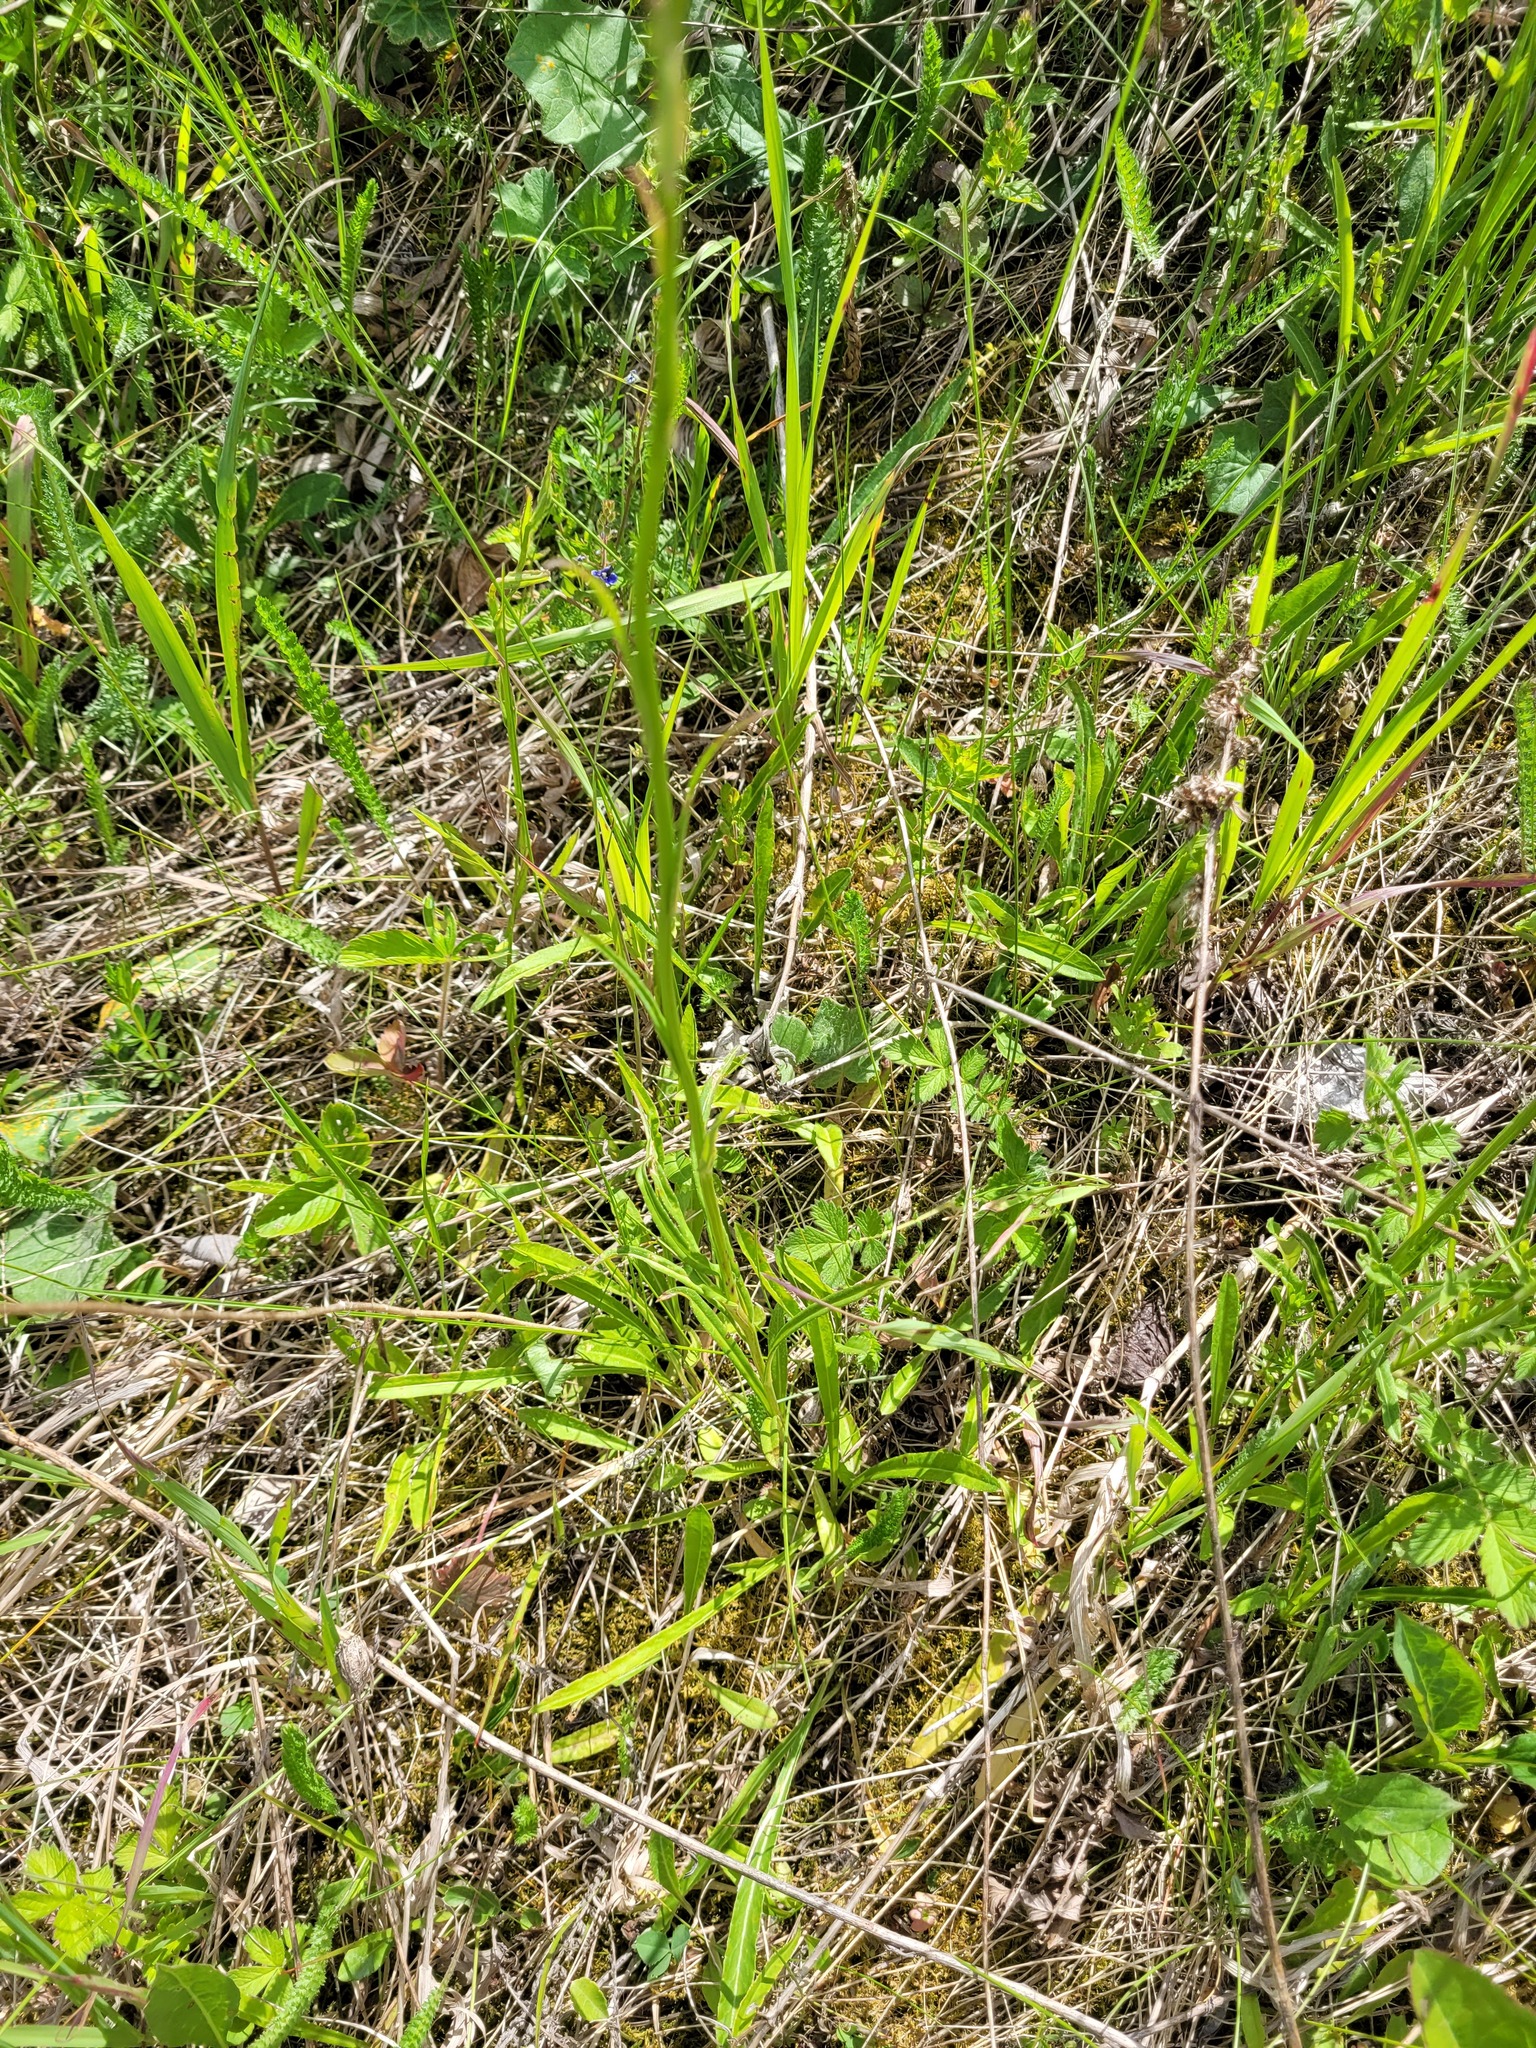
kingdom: Plantae
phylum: Tracheophyta
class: Magnoliopsida
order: Asterales
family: Campanulaceae
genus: Campanula
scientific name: Campanula persicifolia
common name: Peach-leaved bellflower
